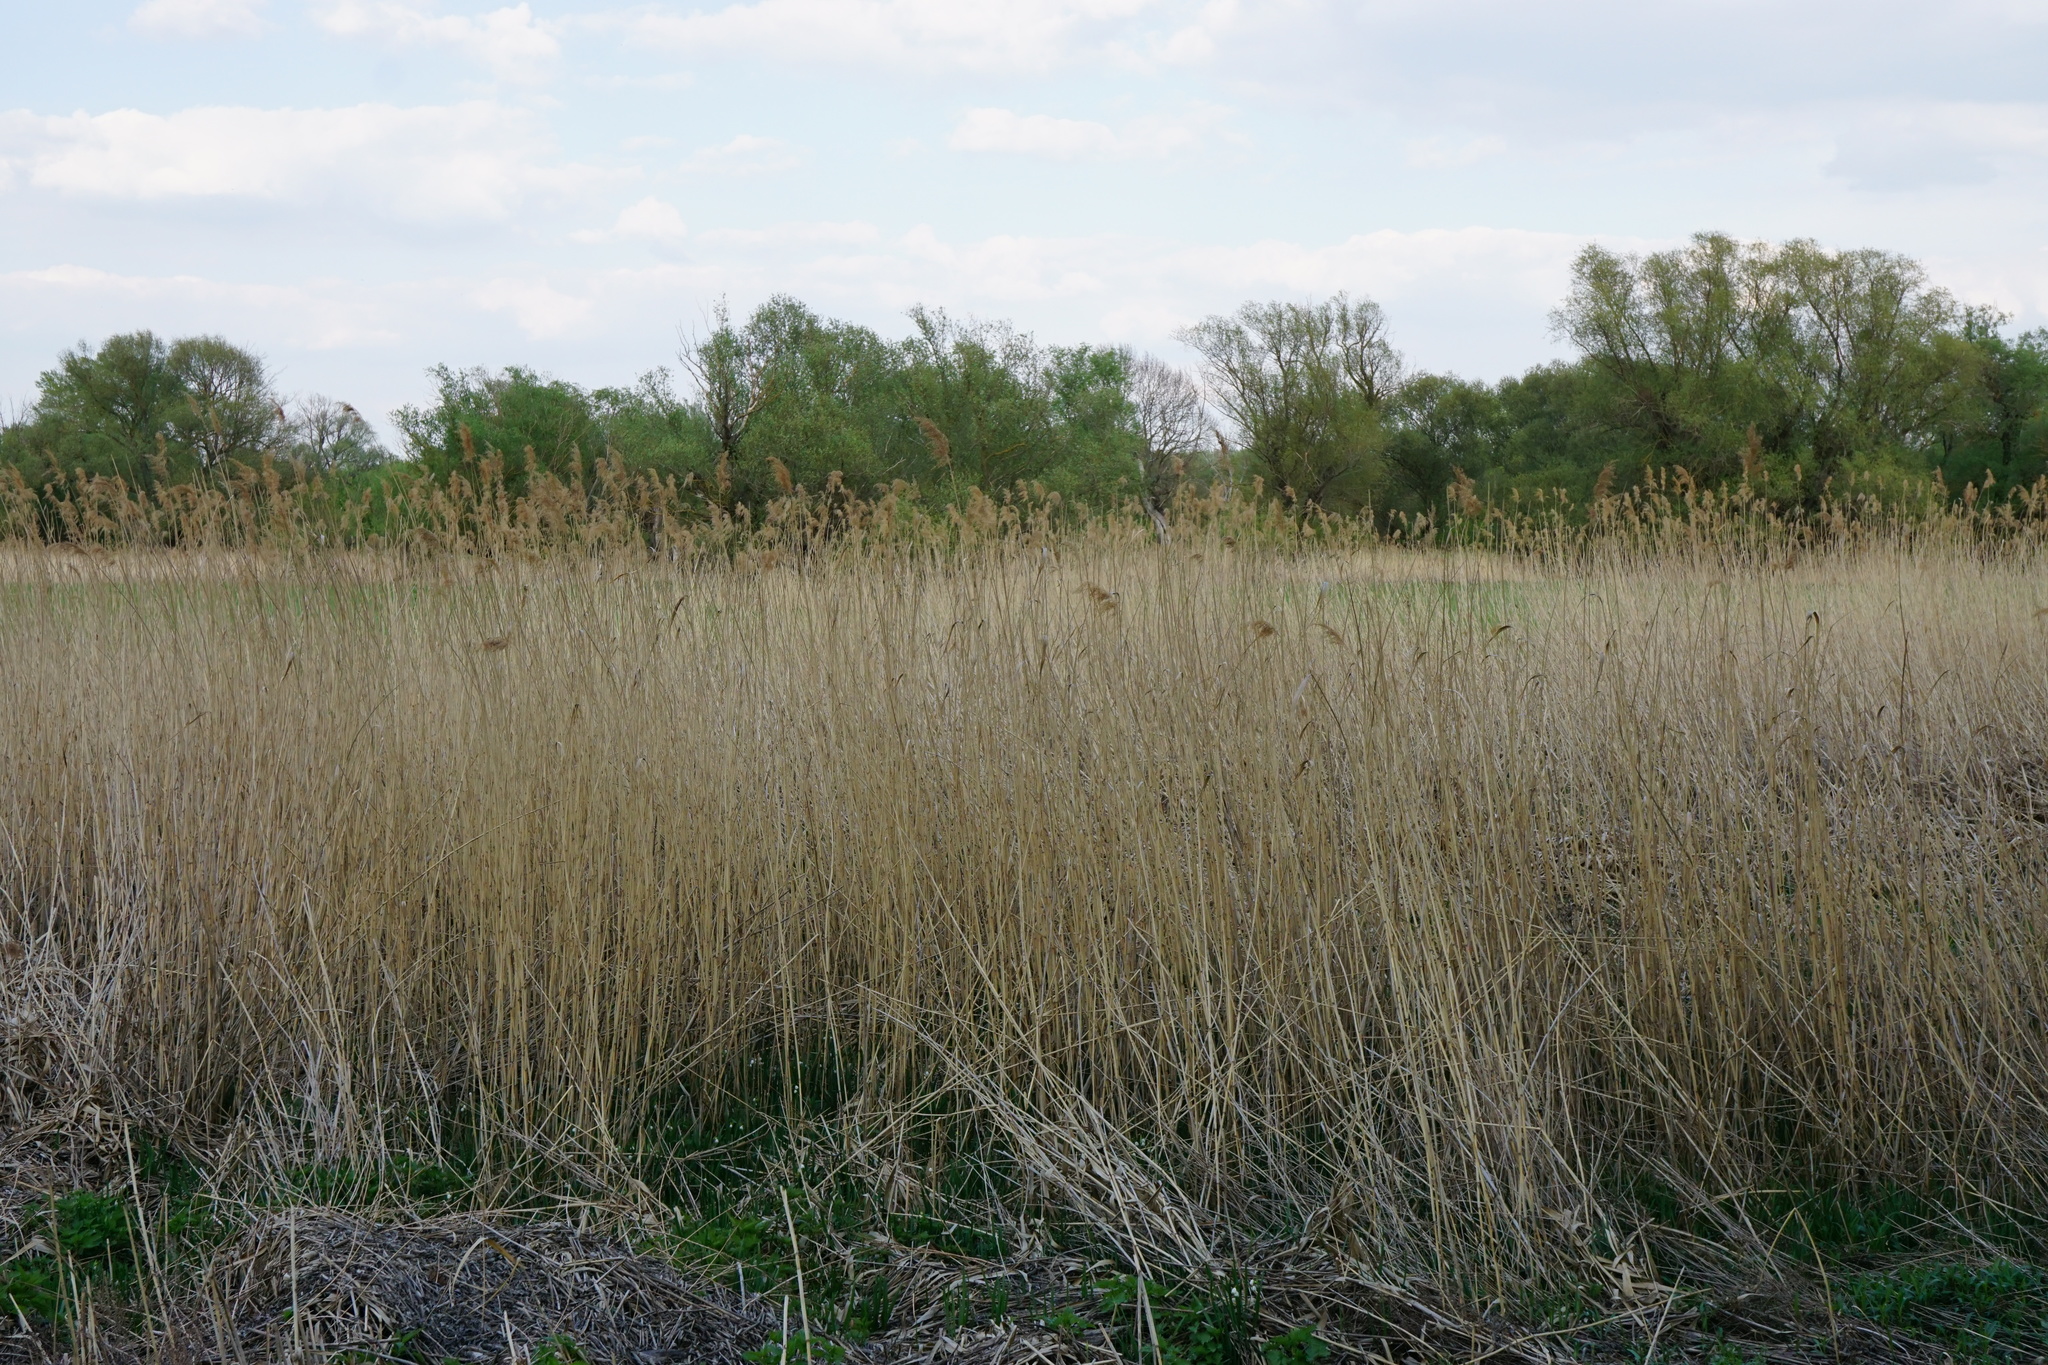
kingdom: Plantae
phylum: Tracheophyta
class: Liliopsida
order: Poales
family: Poaceae
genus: Phragmites
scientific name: Phragmites australis
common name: Common reed
